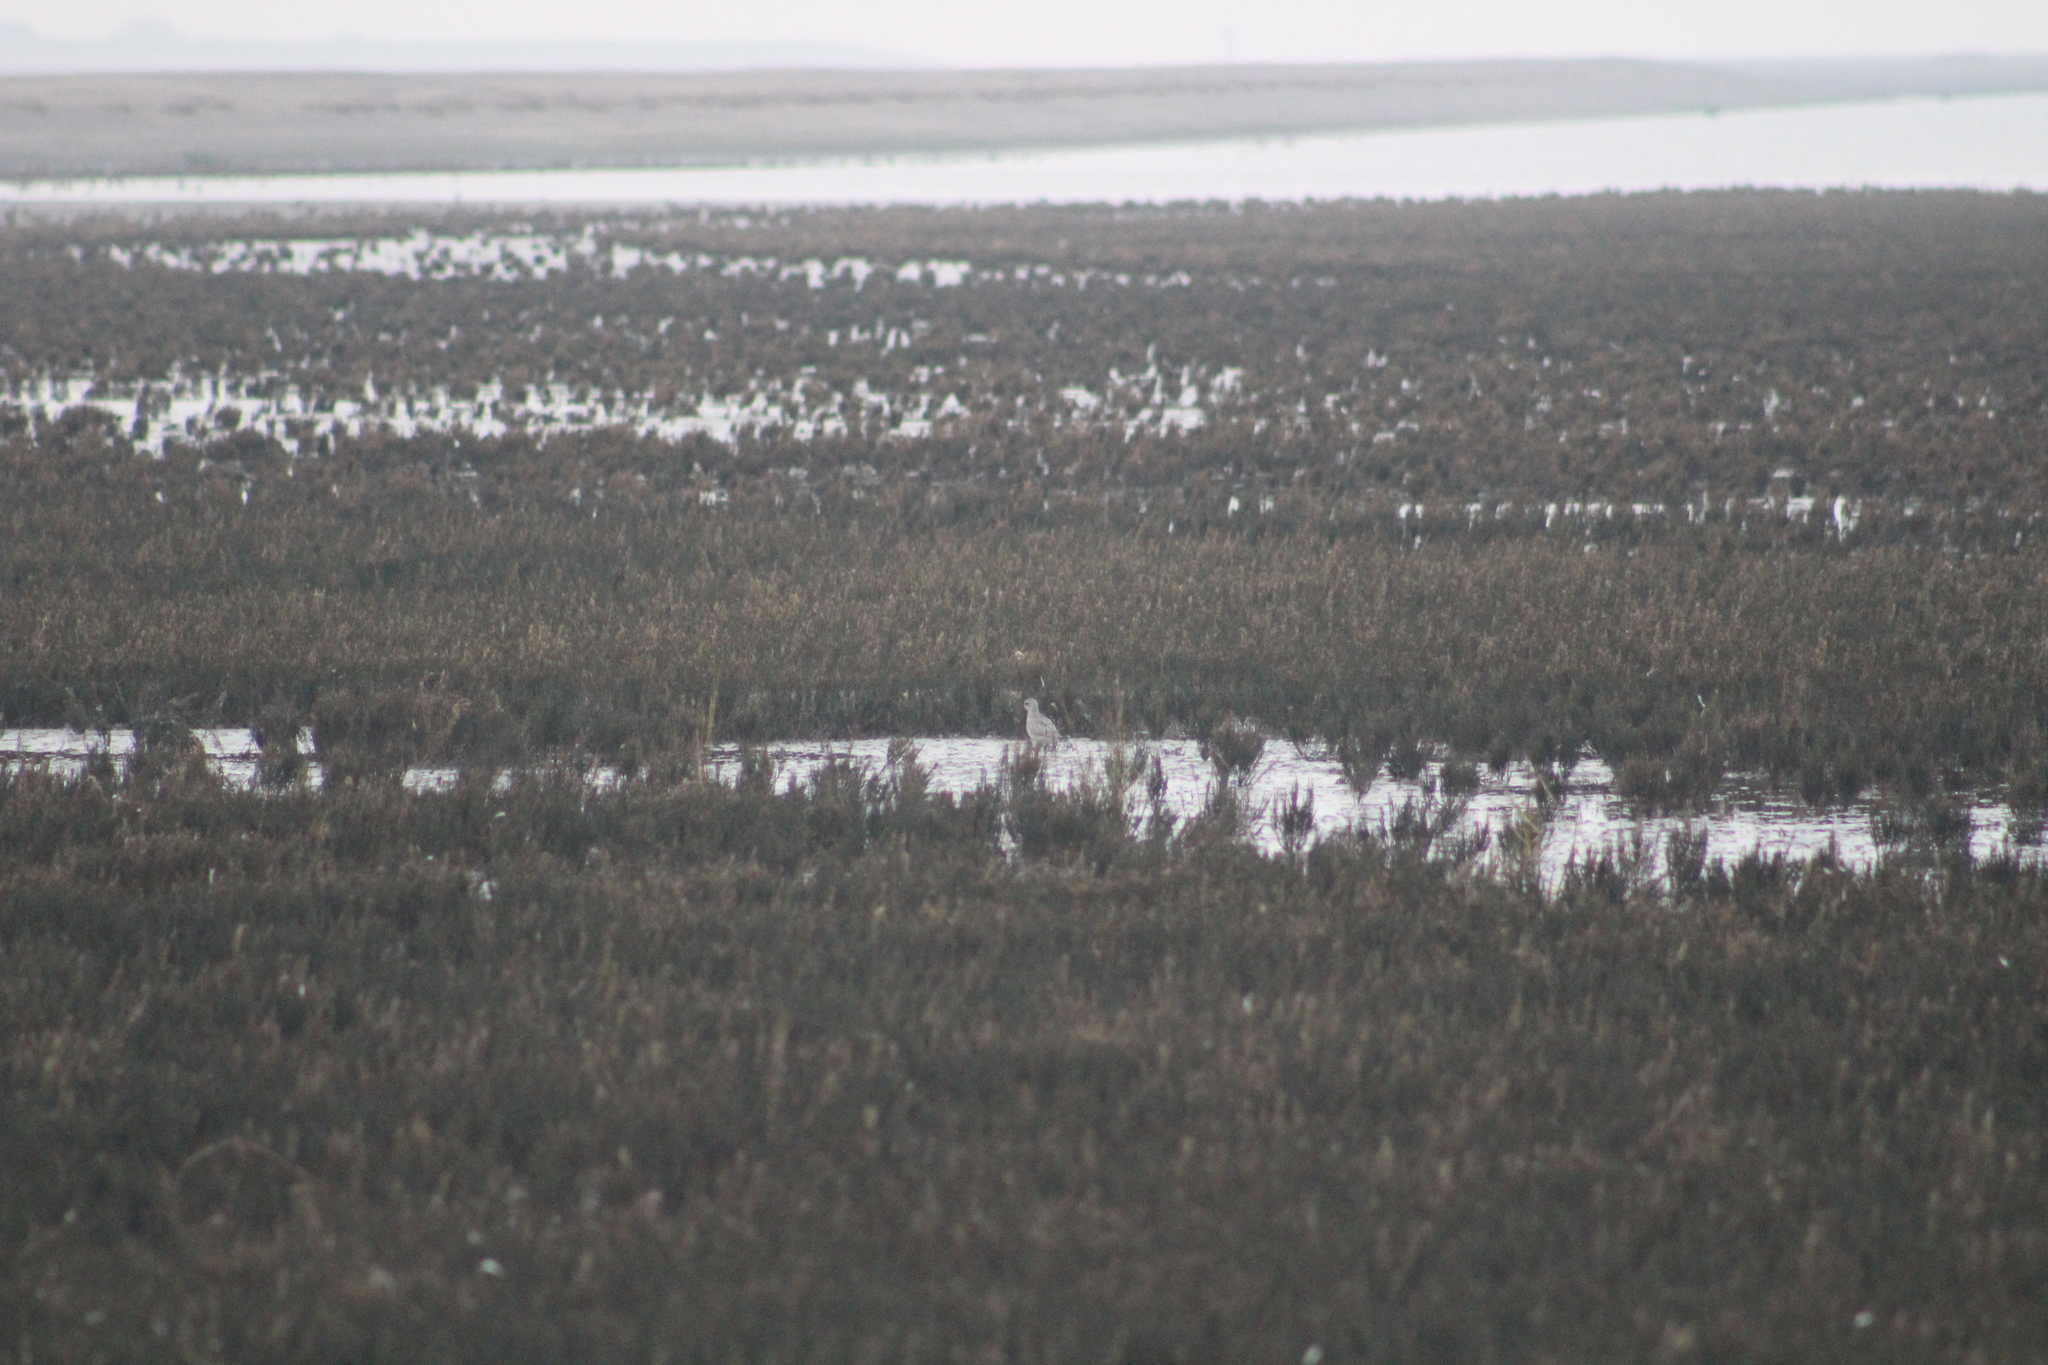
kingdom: Animalia
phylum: Chordata
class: Aves
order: Charadriiformes
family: Charadriidae
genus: Pluvialis
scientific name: Pluvialis squatarola
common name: Grey plover
